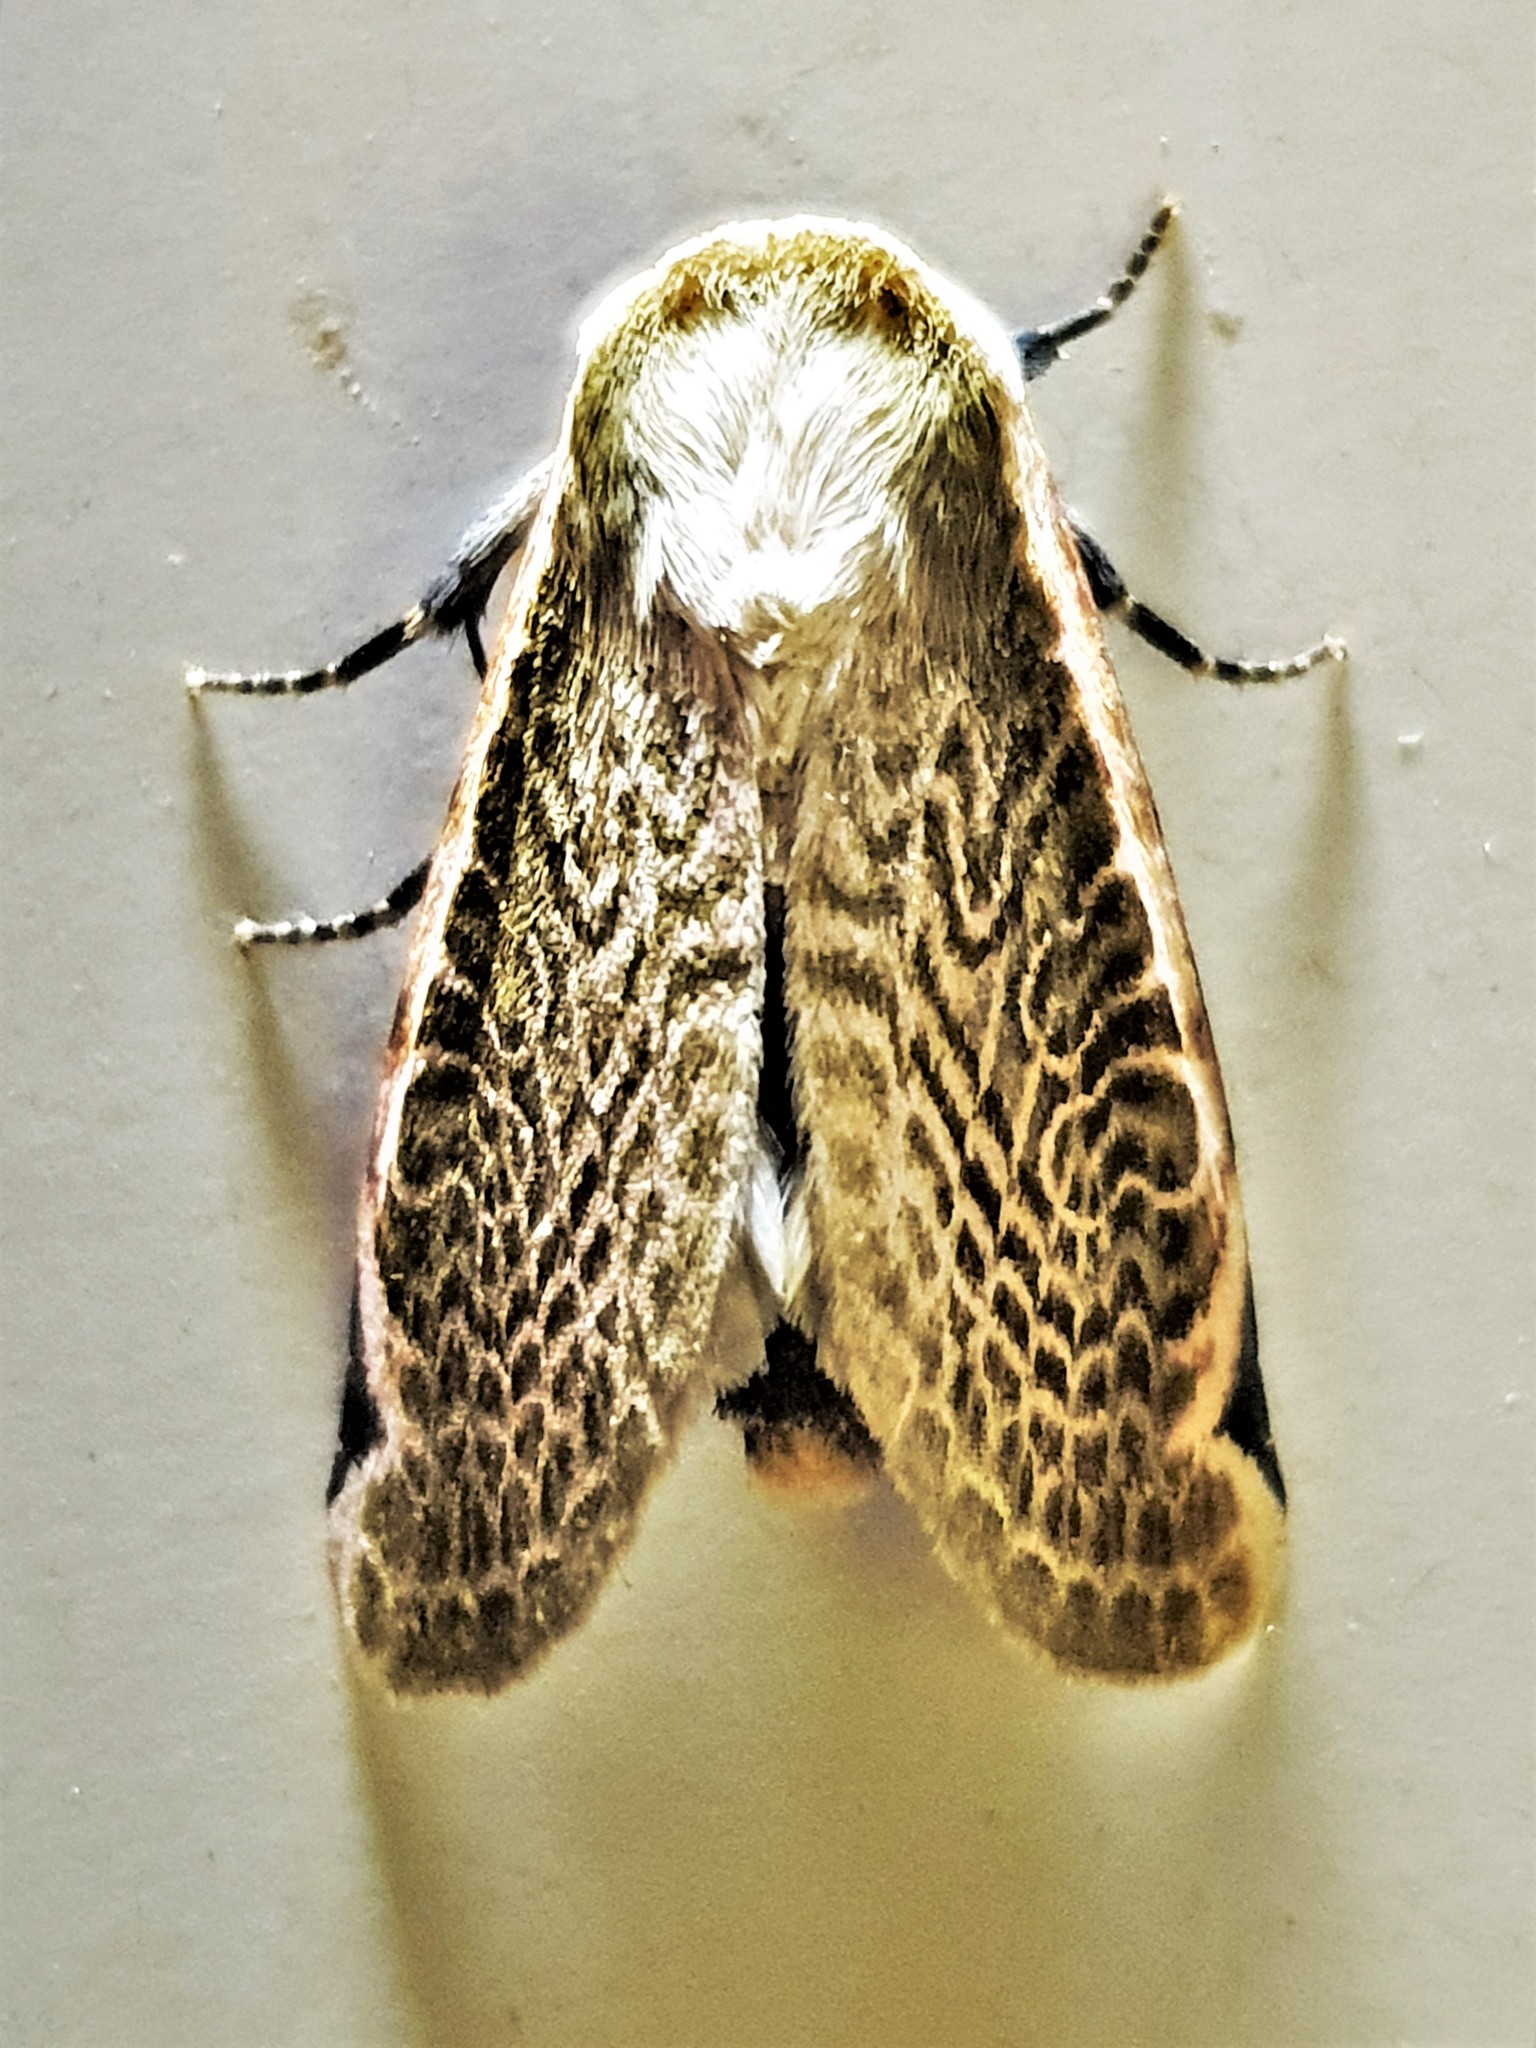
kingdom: Animalia
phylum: Arthropoda
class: Insecta
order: Lepidoptera
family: Noctuidae
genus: Oxythres
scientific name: Oxythres splendens
